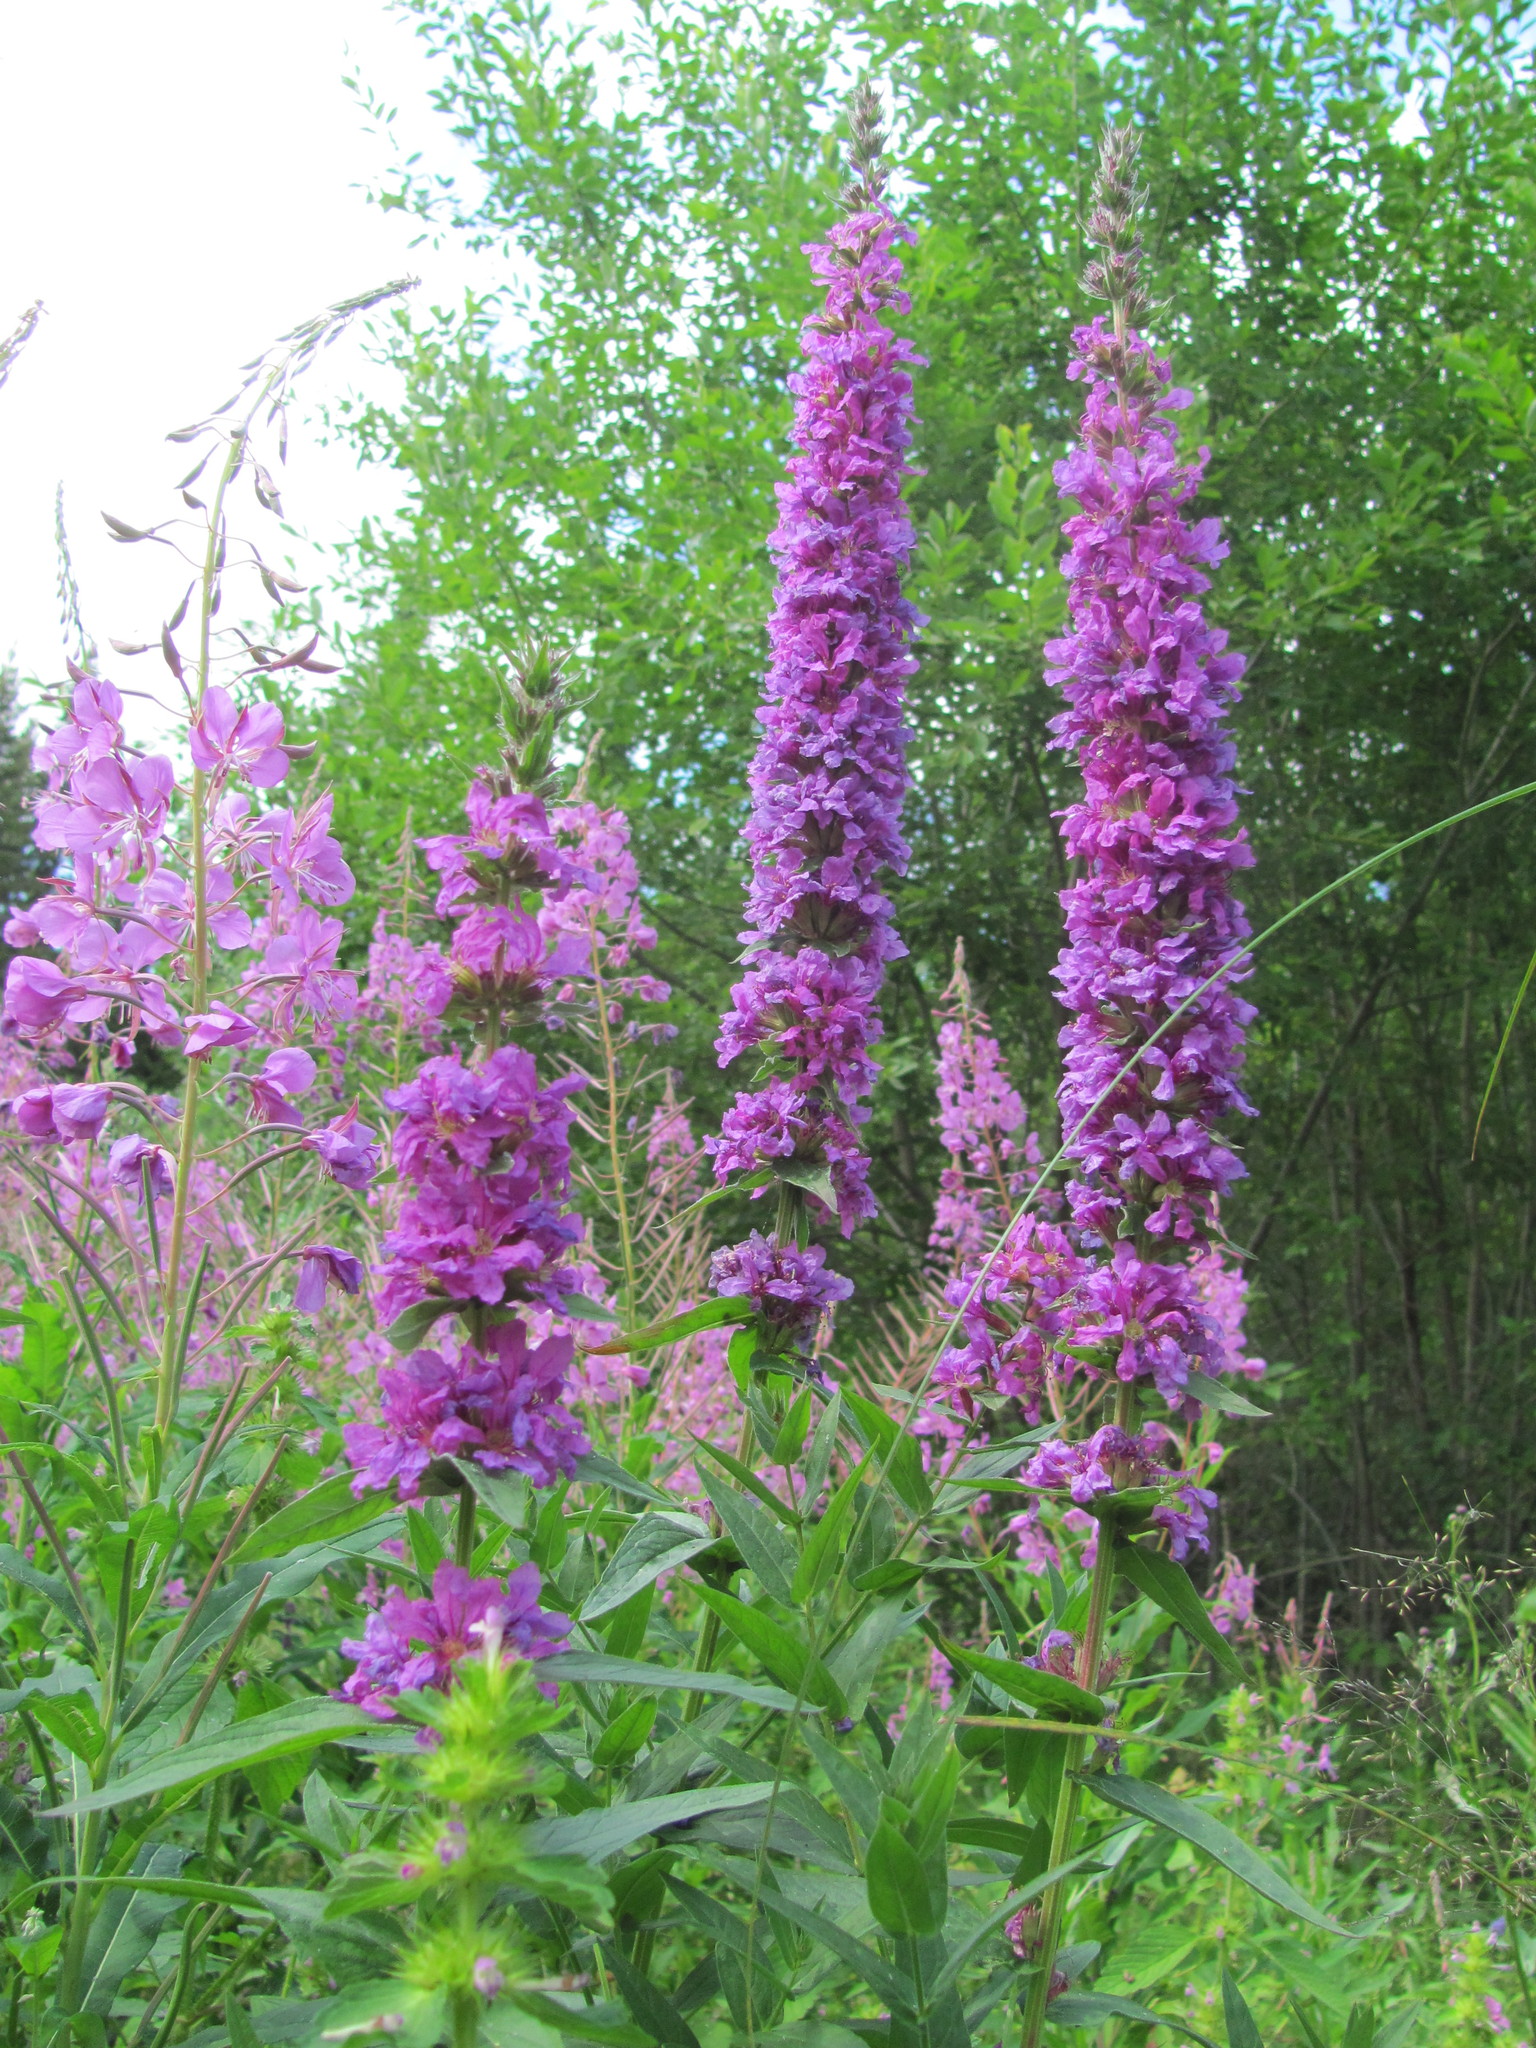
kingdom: Plantae
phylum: Tracheophyta
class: Magnoliopsida
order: Myrtales
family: Lythraceae
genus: Lythrum
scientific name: Lythrum salicaria
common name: Purple loosestrife
